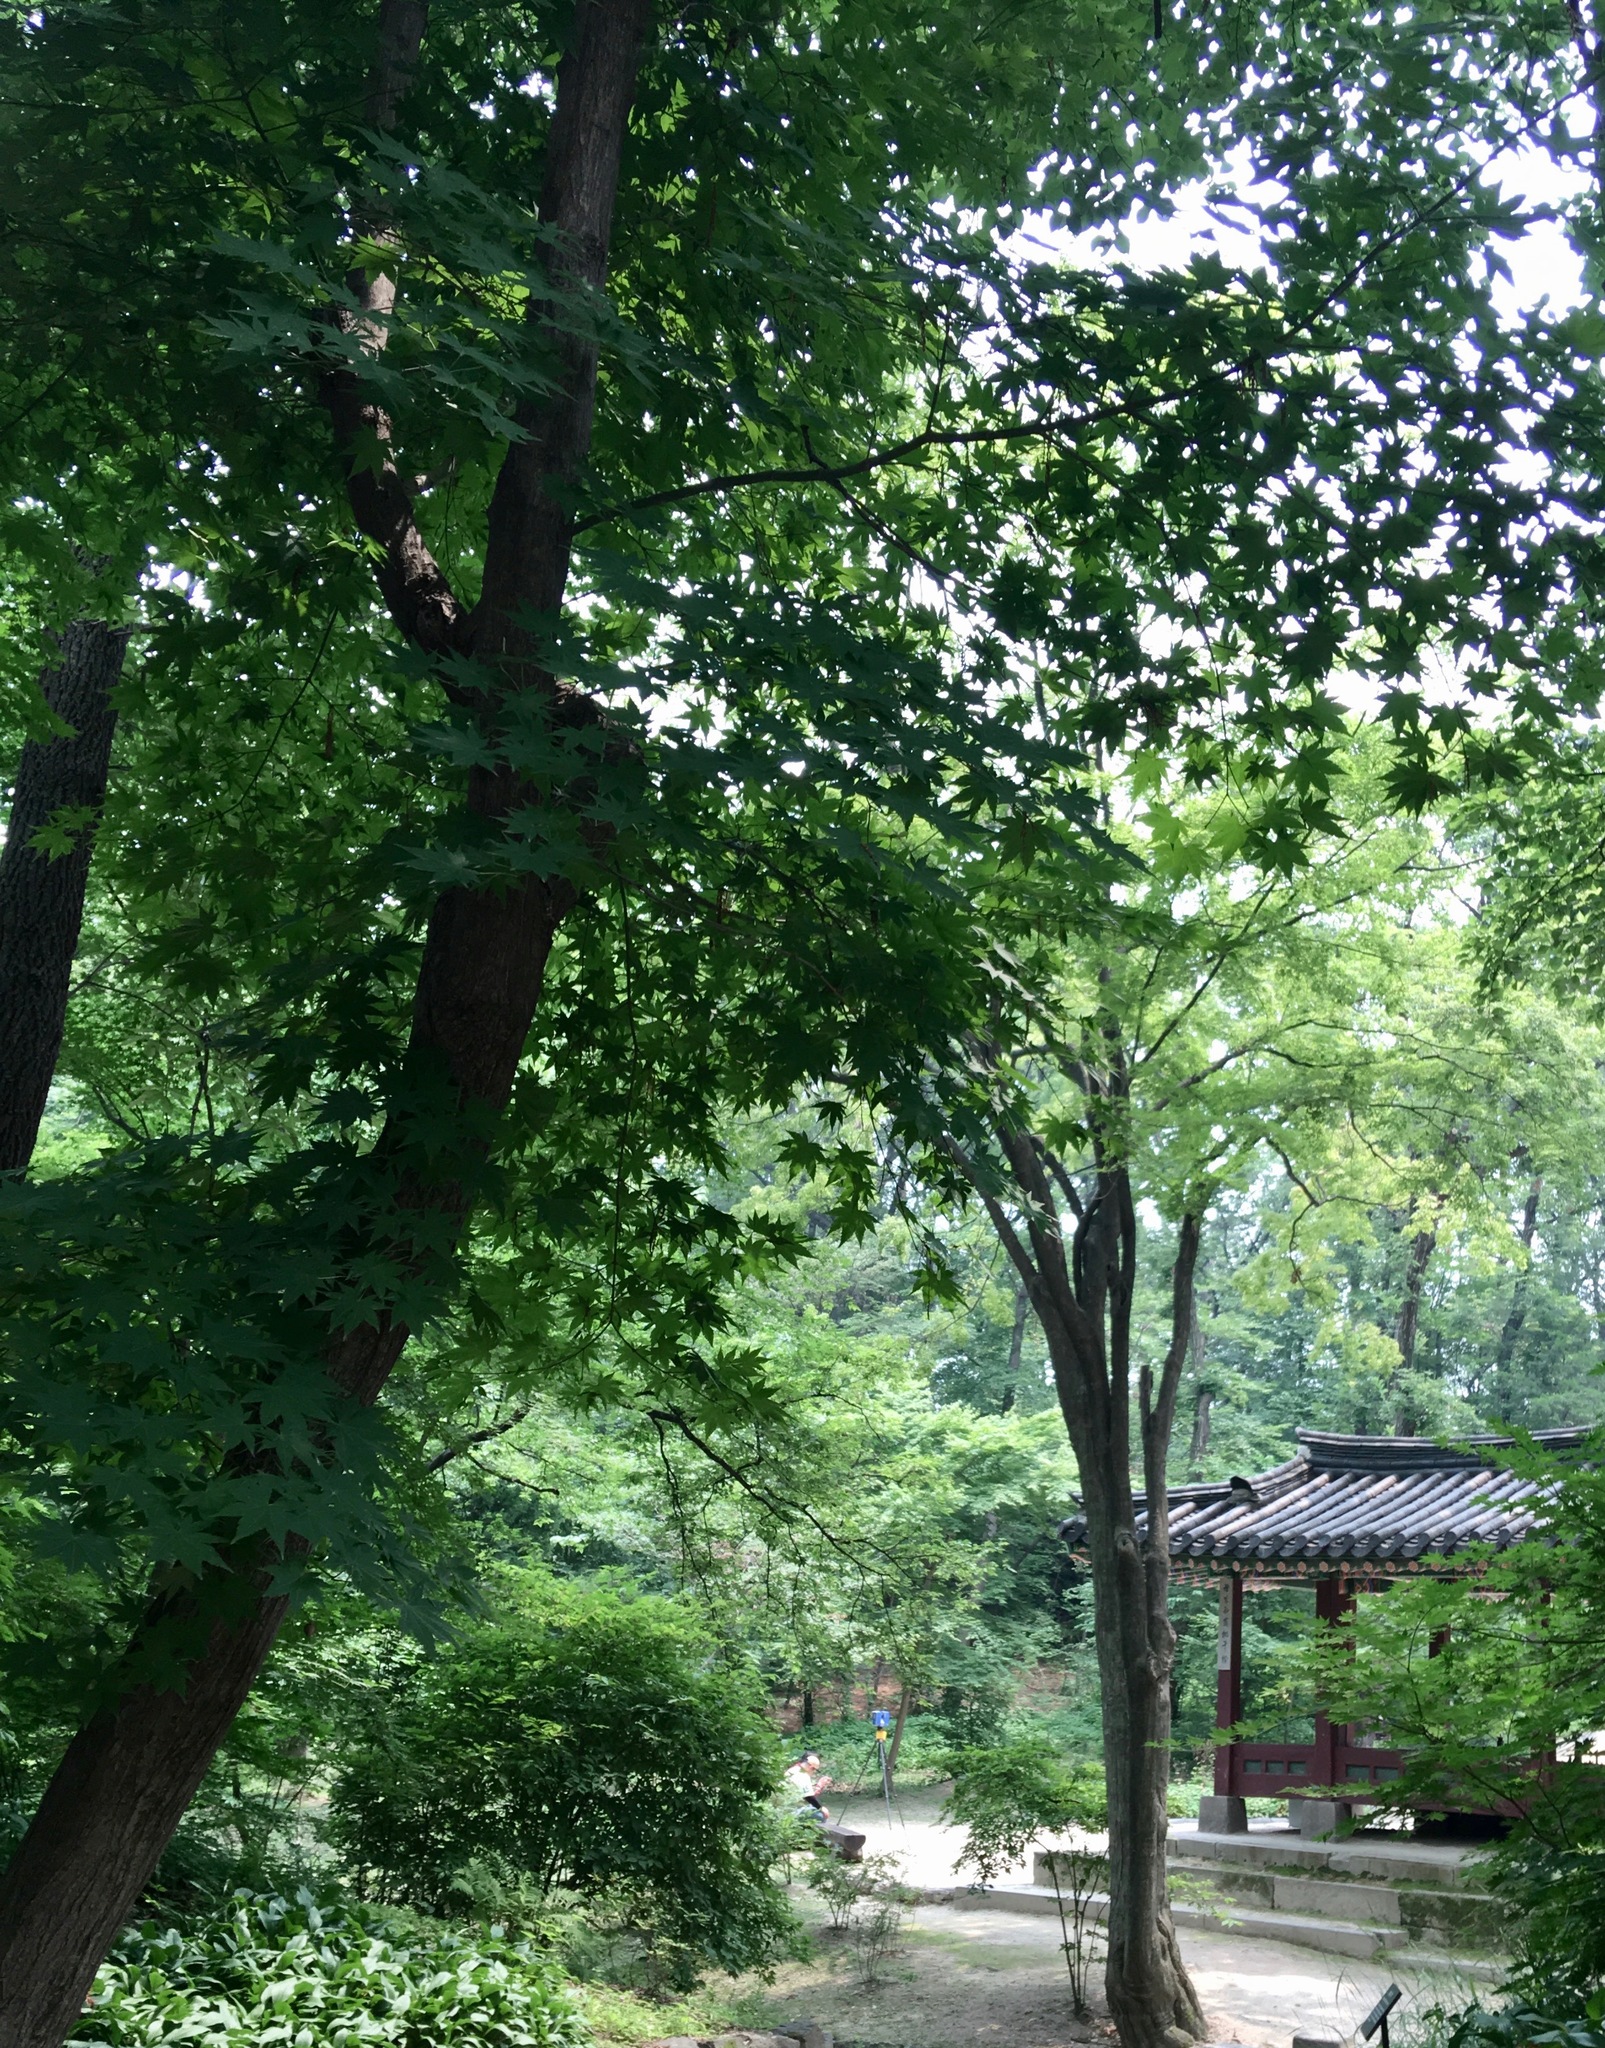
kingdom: Plantae
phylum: Tracheophyta
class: Magnoliopsida
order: Sapindales
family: Sapindaceae
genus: Acer
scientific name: Acer palmatum
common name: Japanese maple
